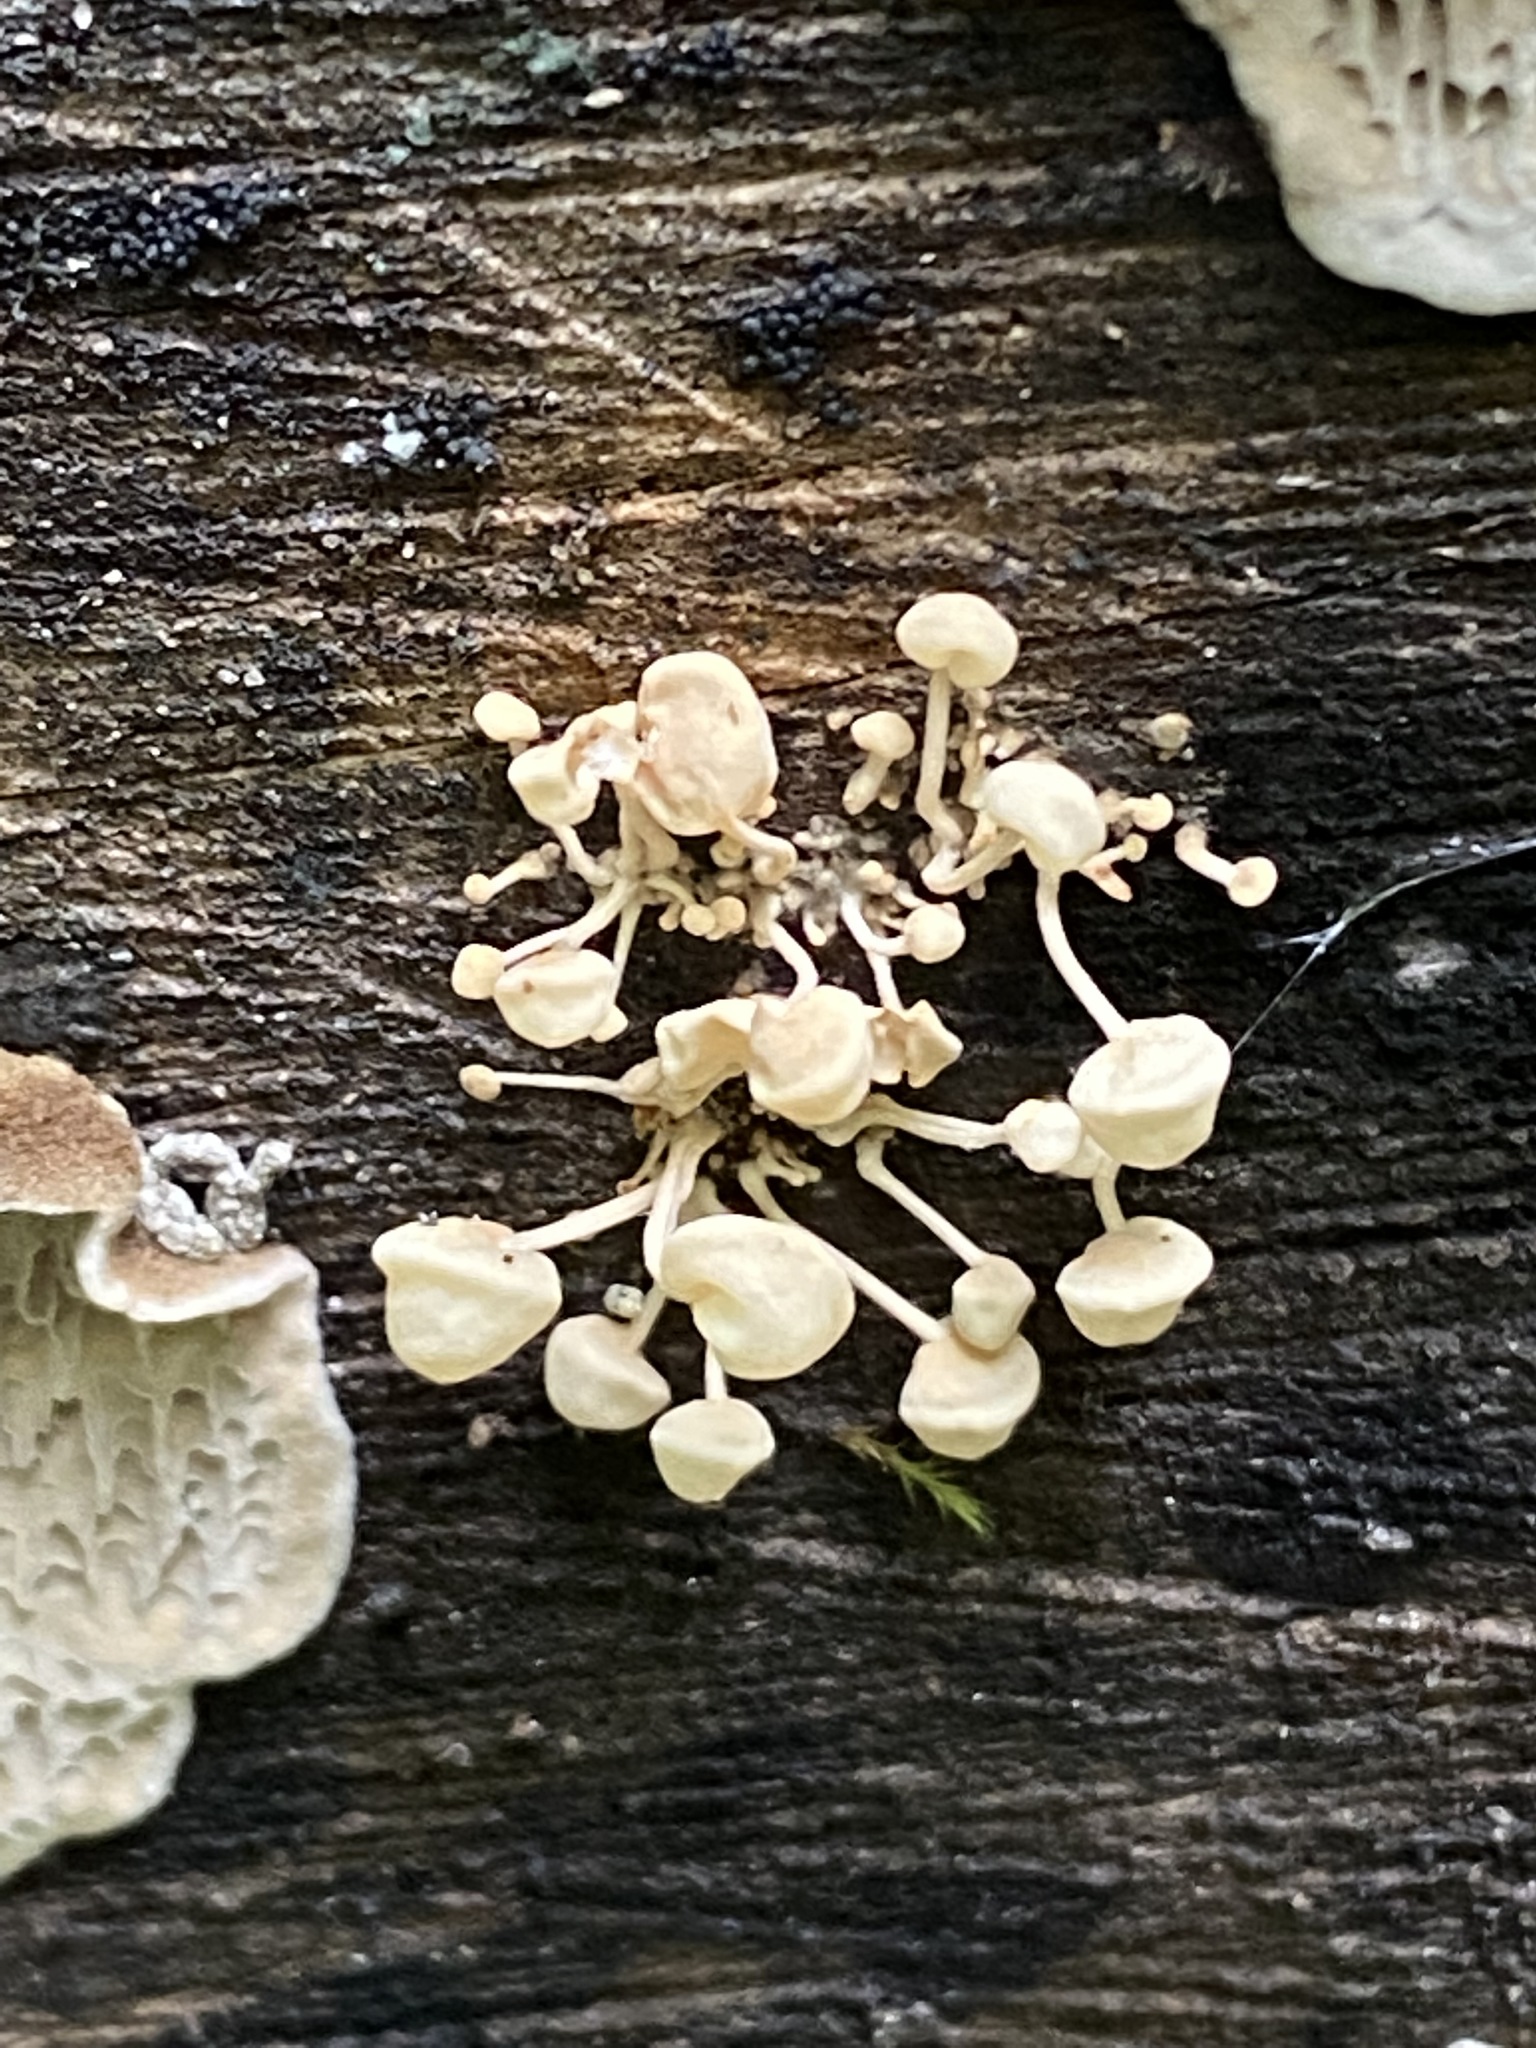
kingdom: Fungi
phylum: Basidiomycota
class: Agaricomycetes
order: Agaricales
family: Physalacriaceae
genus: Physalacria
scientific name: Physalacria inflata
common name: Bladder stalks
